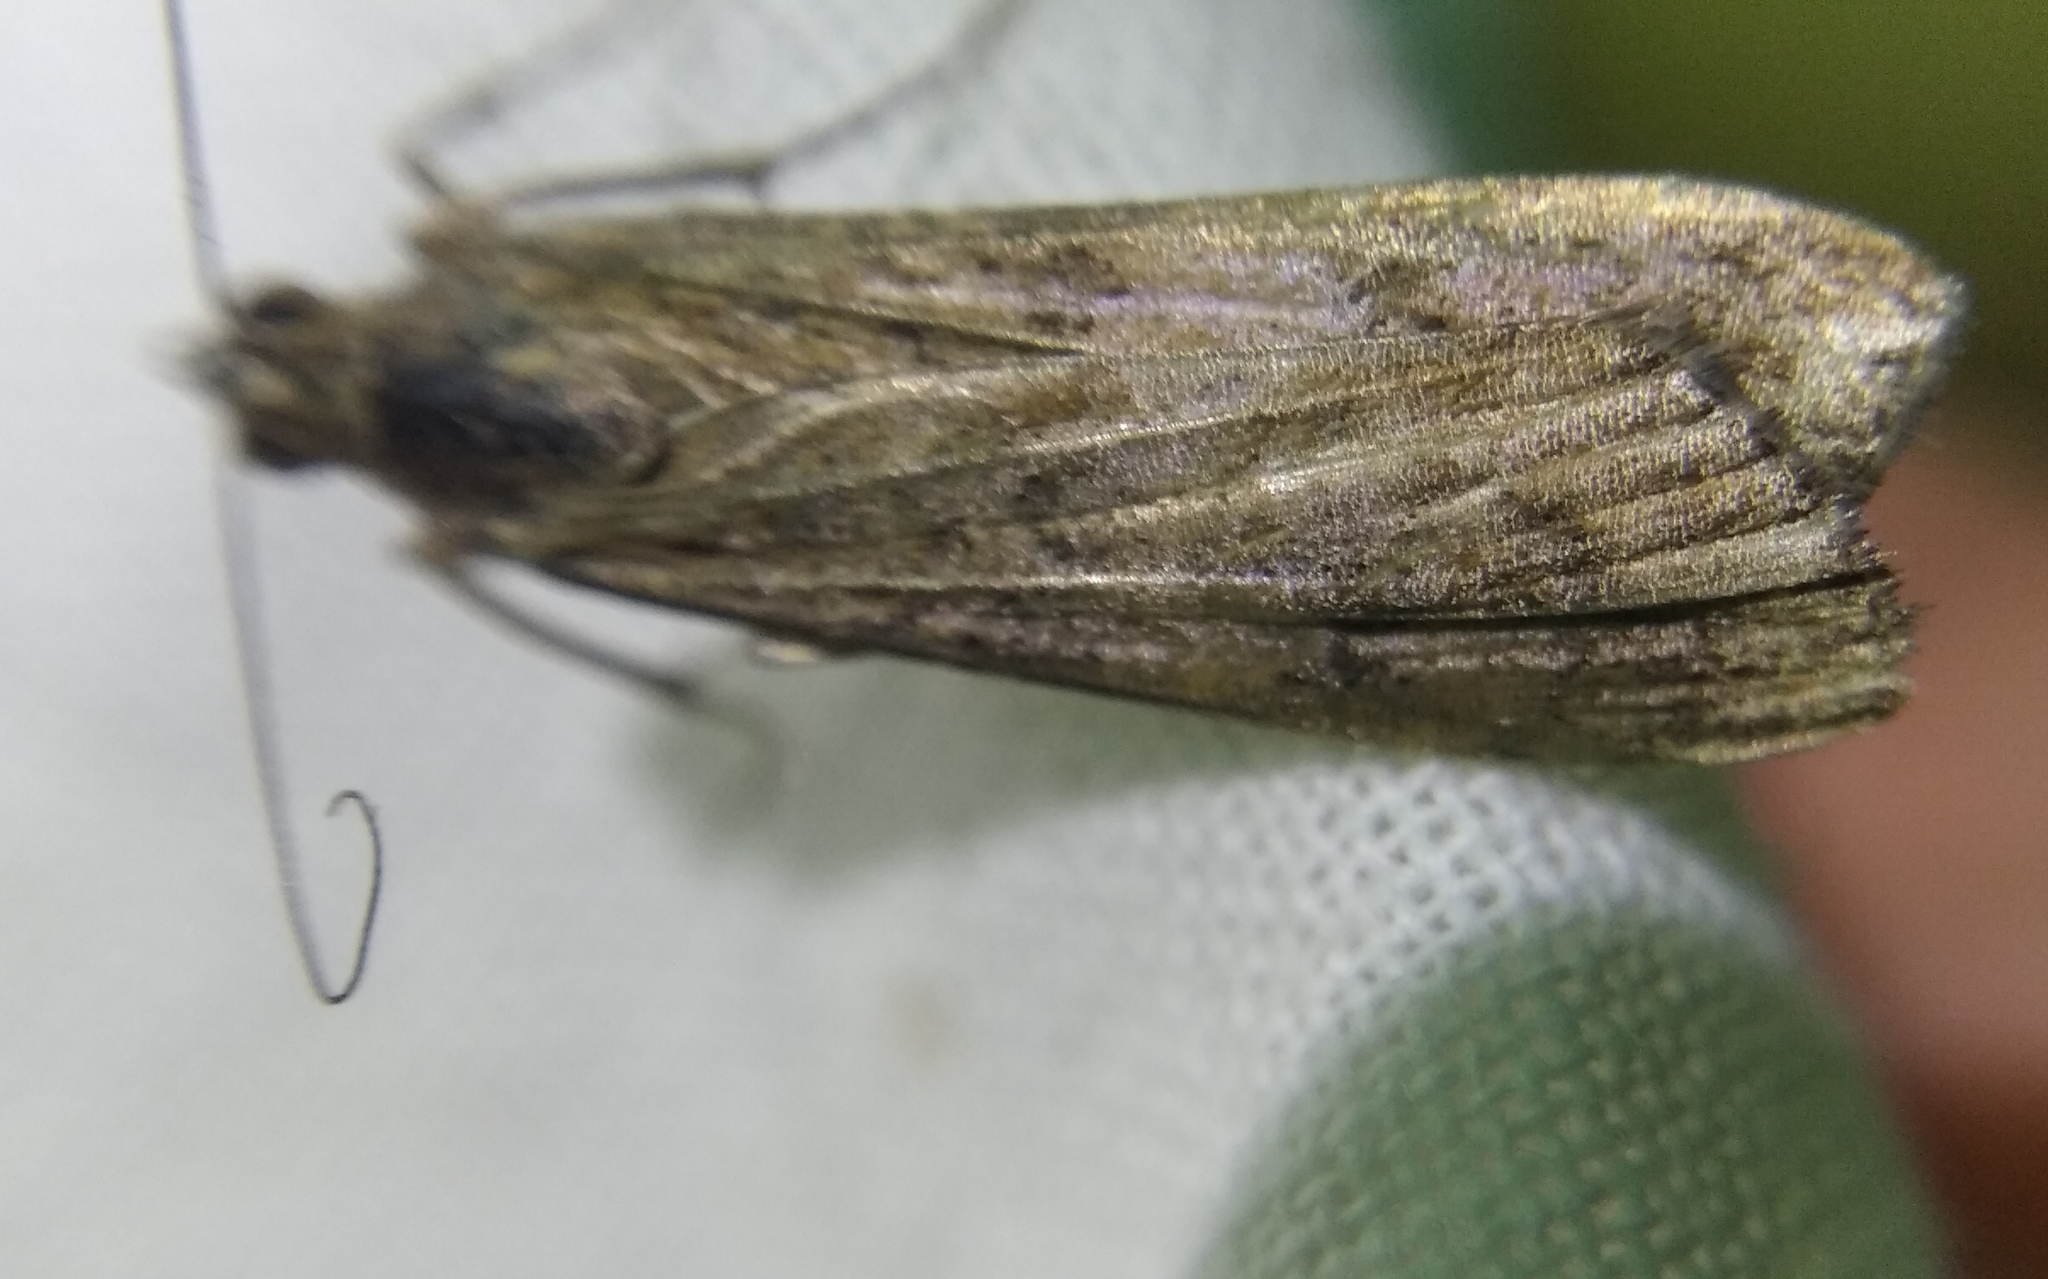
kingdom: Animalia
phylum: Arthropoda
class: Insecta
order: Lepidoptera
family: Crambidae
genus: Nomophila
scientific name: Nomophila noctuella
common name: Rush veneer
